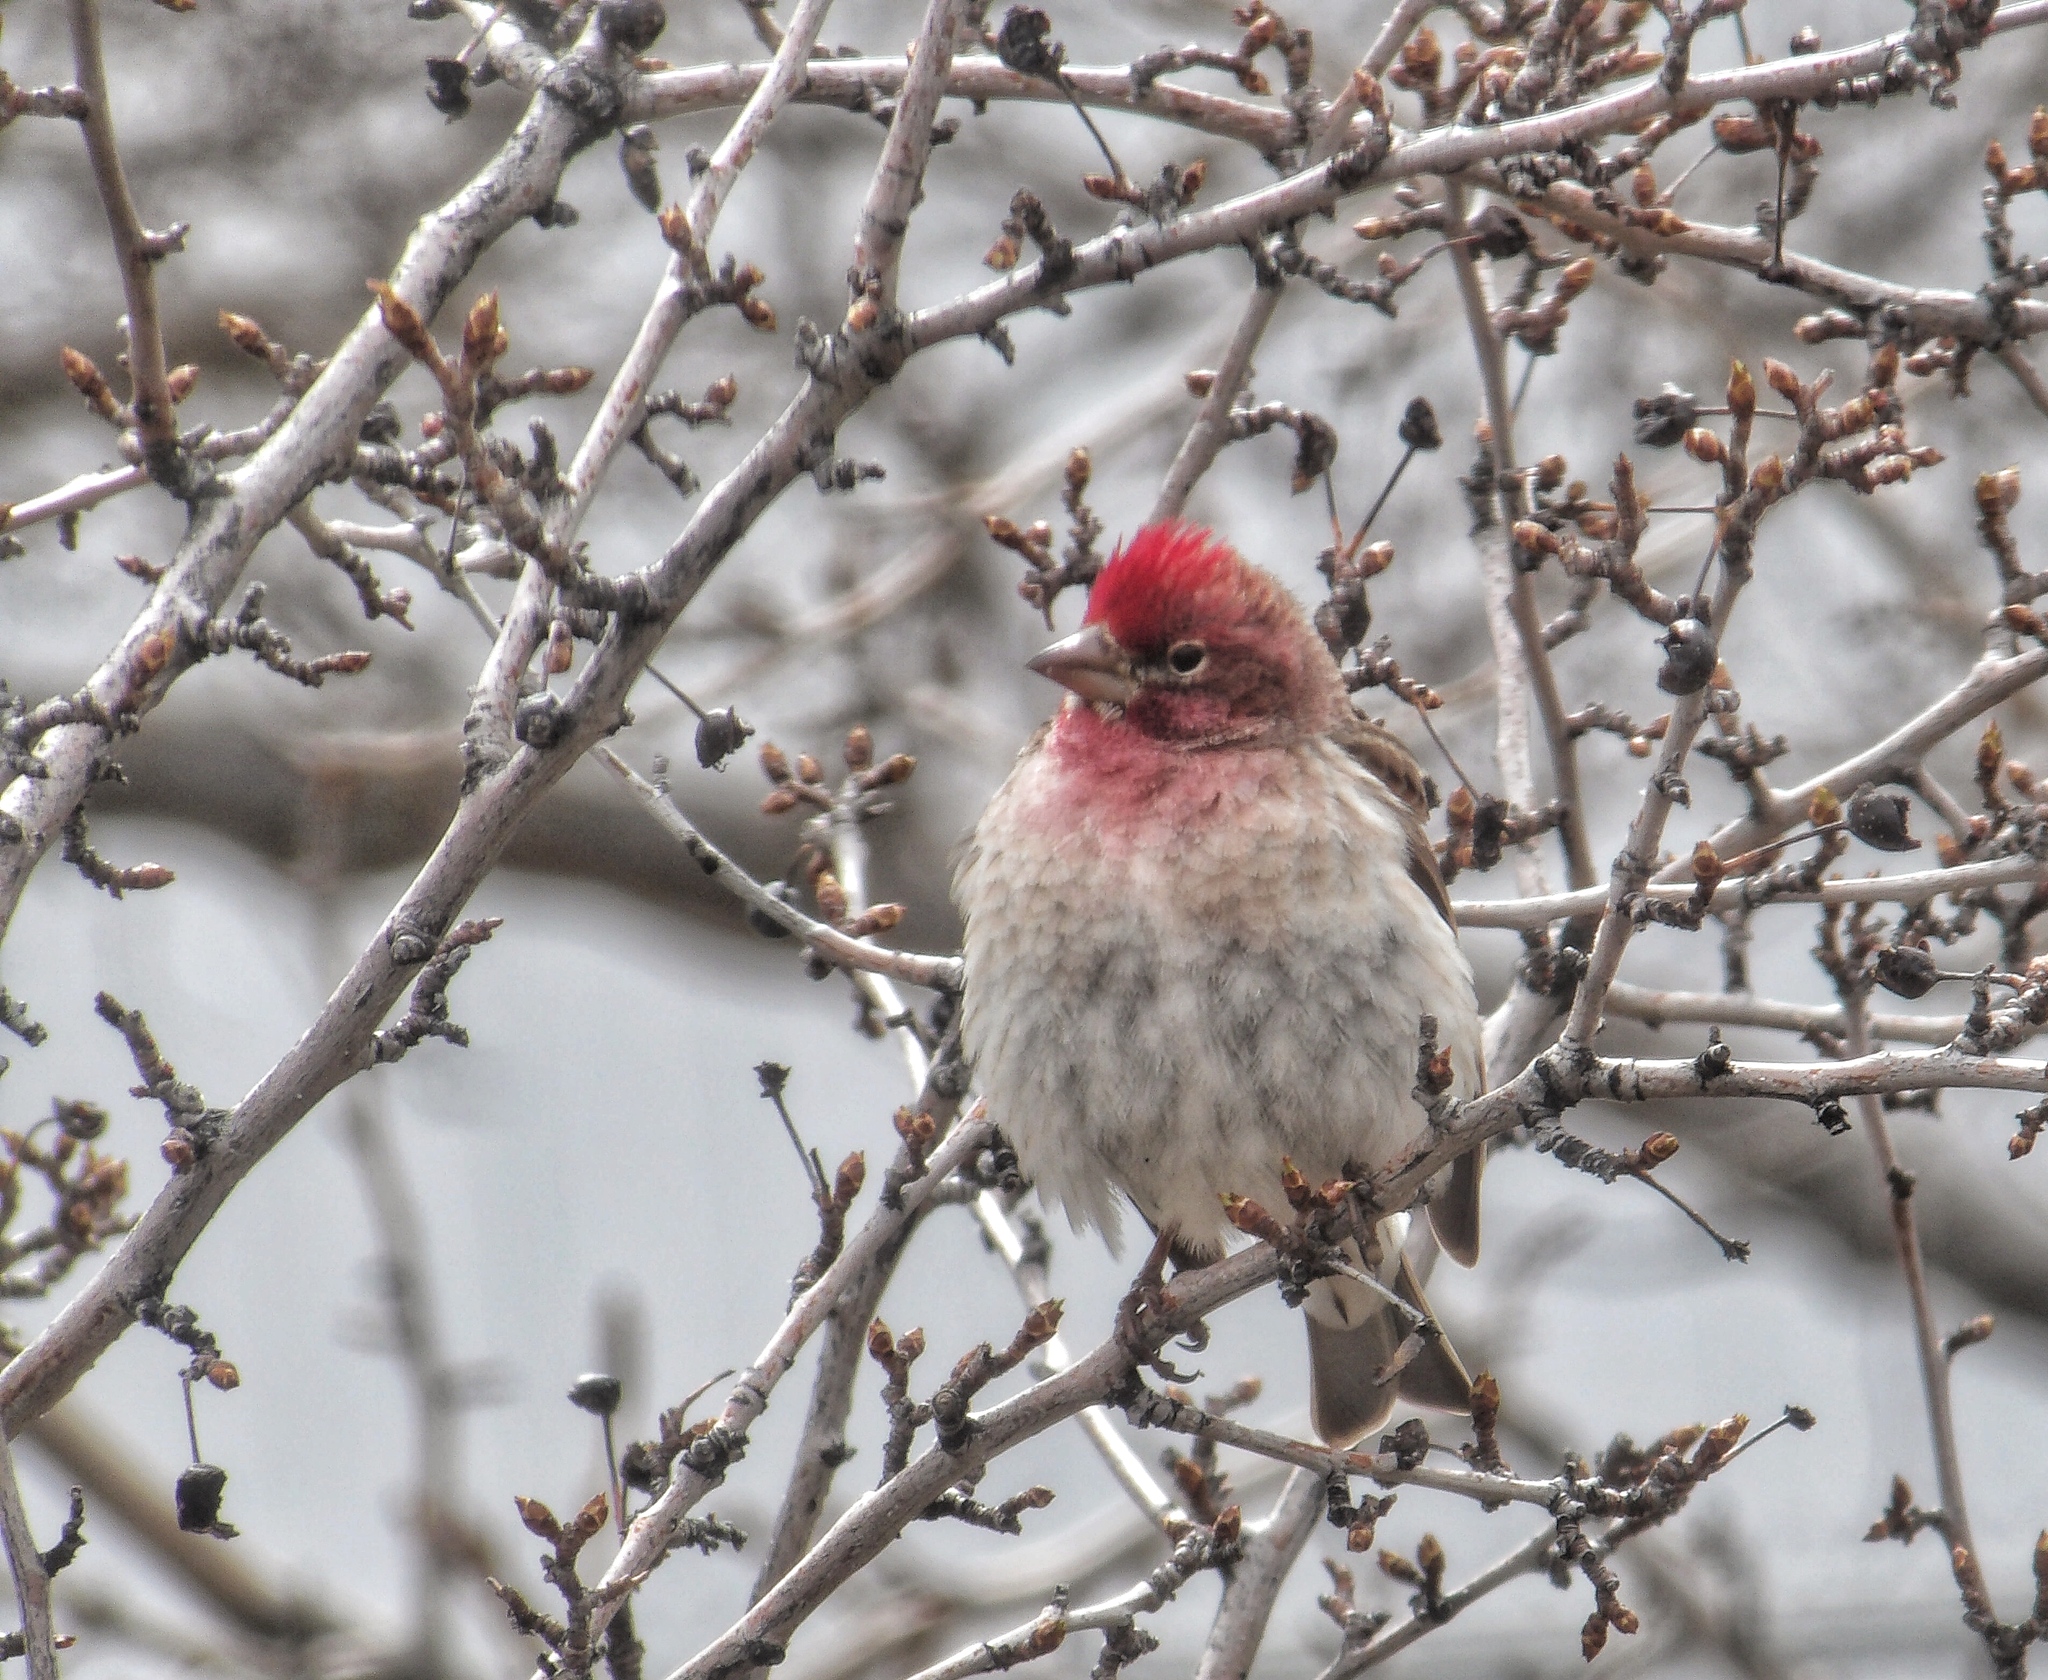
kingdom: Animalia
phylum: Chordata
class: Aves
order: Passeriformes
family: Fringillidae
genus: Haemorhous
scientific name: Haemorhous cassinii
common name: Cassin's finch
